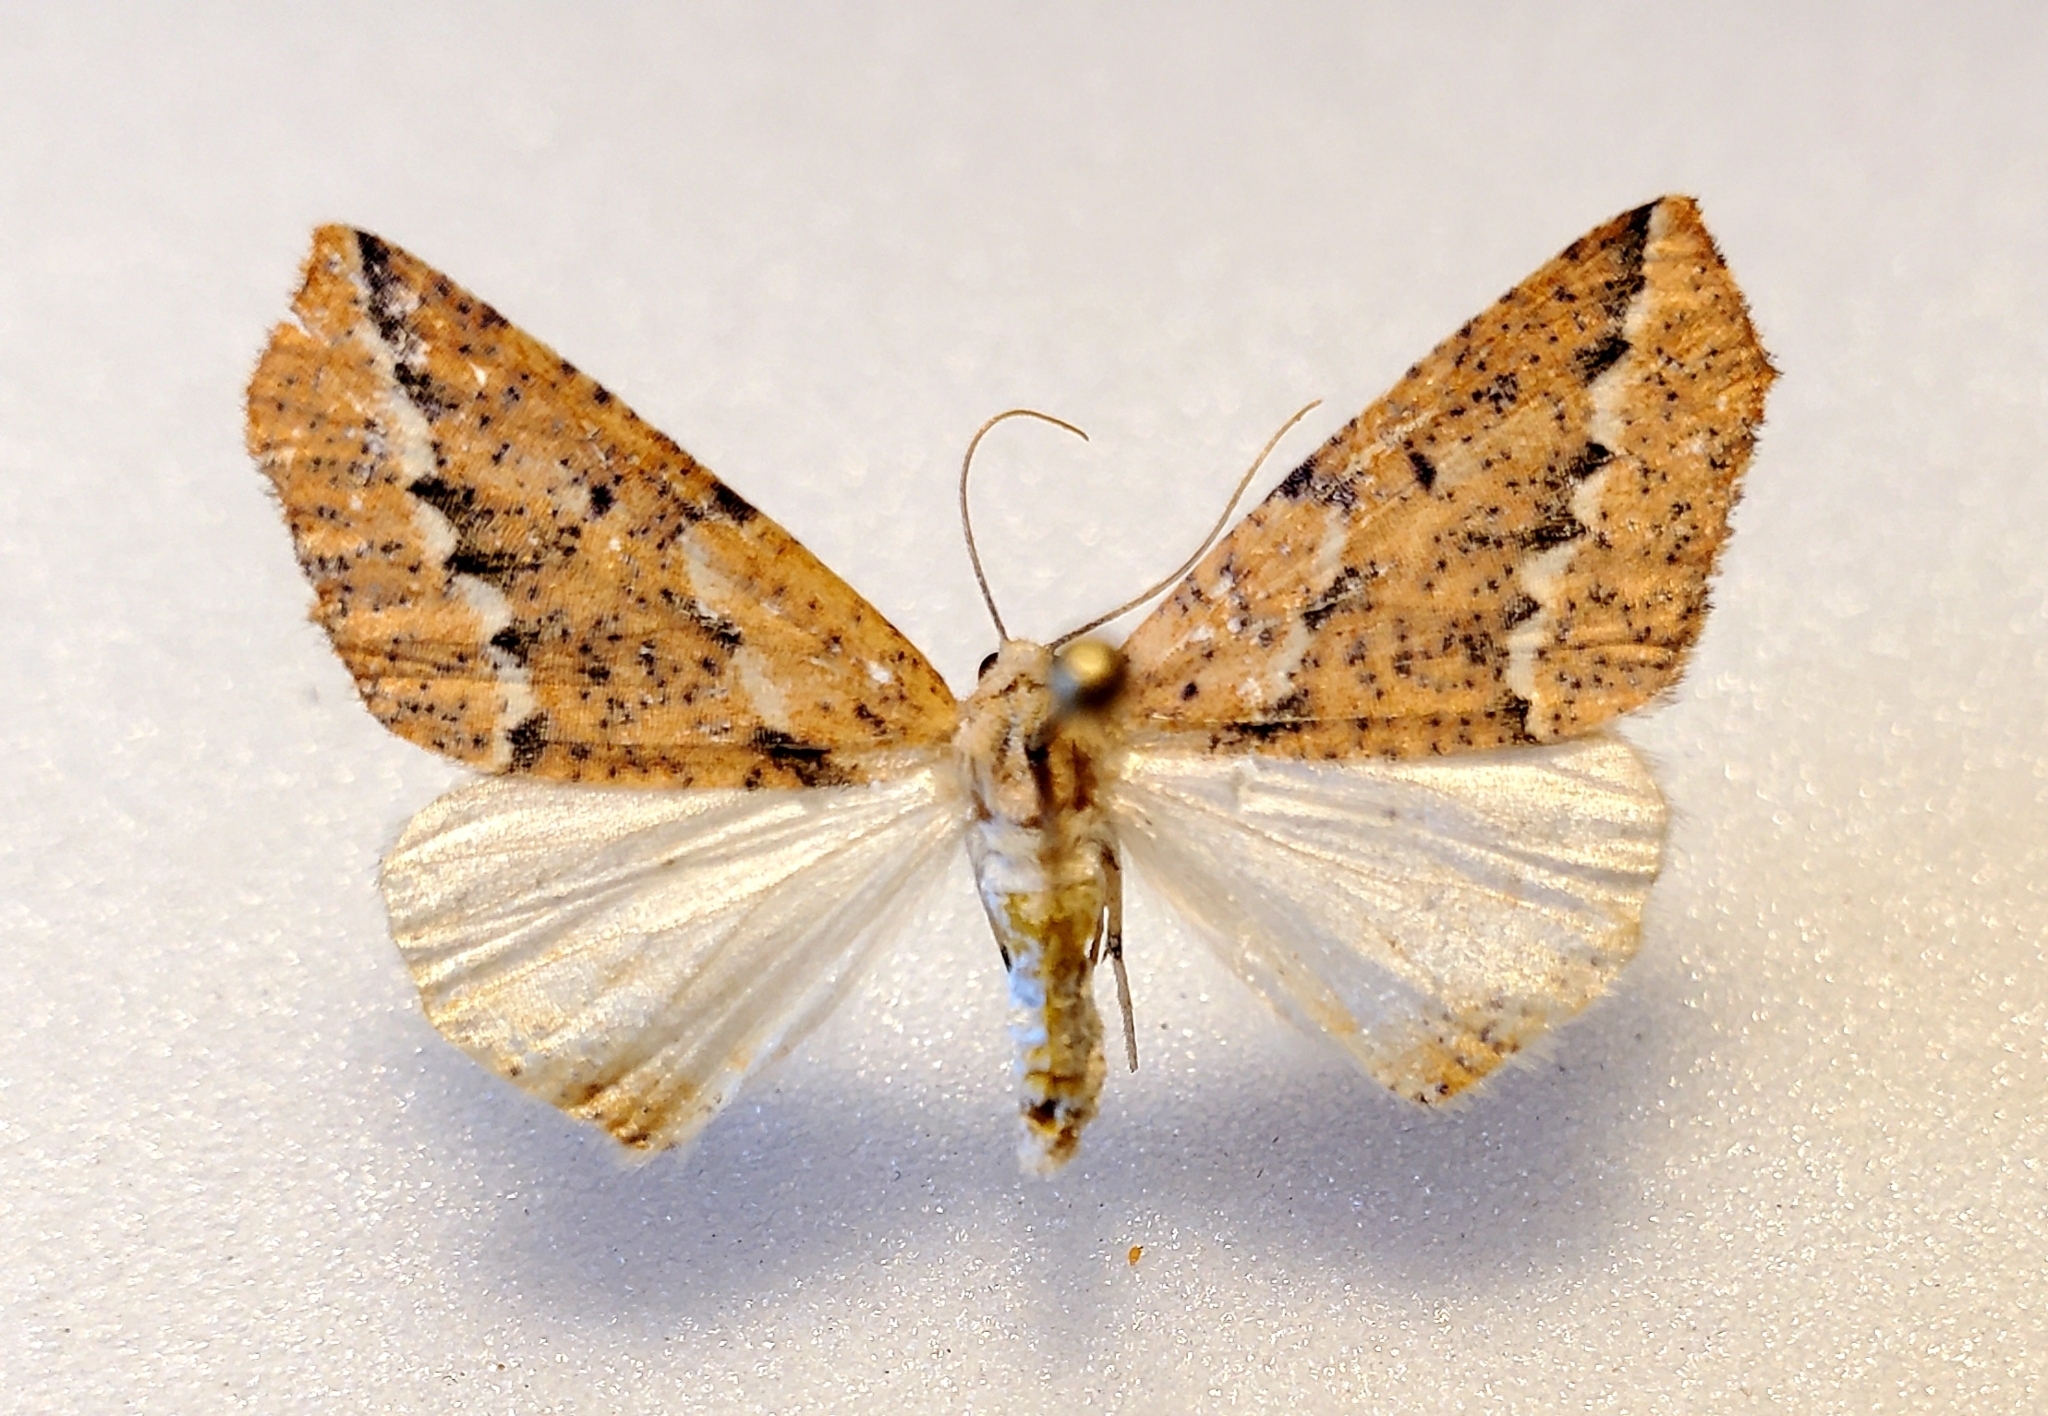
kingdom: Animalia
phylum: Arthropoda
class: Insecta
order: Lepidoptera
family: Geometridae
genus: Sicya
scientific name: Sicya morsicaria
